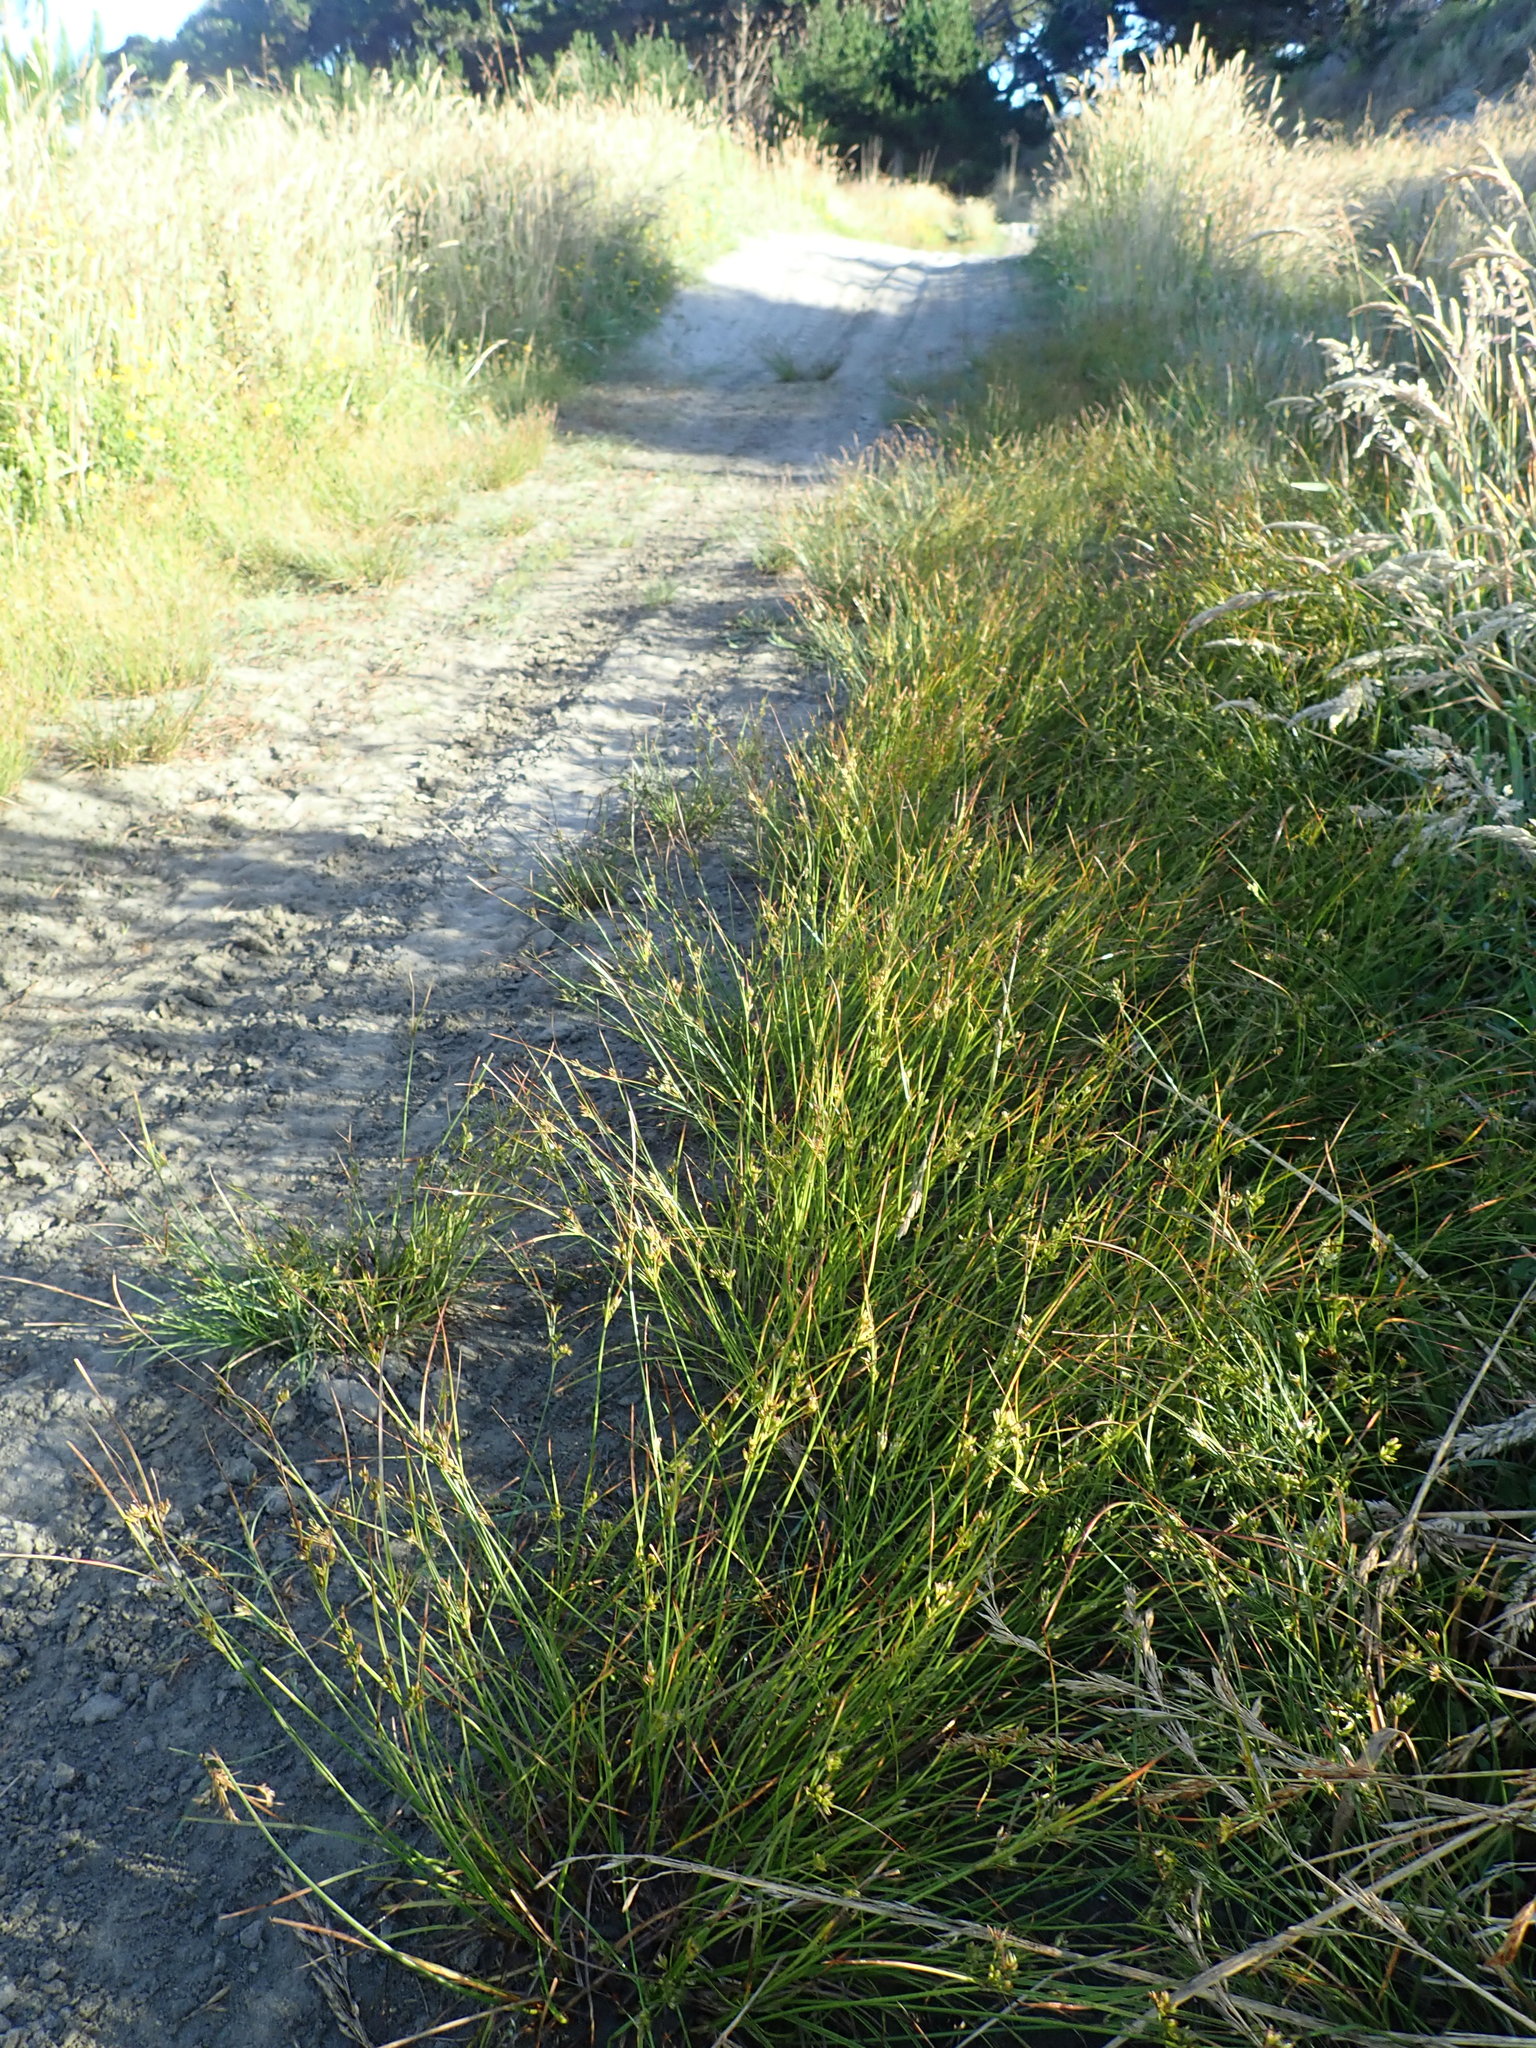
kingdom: Plantae
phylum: Tracheophyta
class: Liliopsida
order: Poales
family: Juncaceae
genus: Juncus
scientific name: Juncus tenuis
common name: Slender rush
